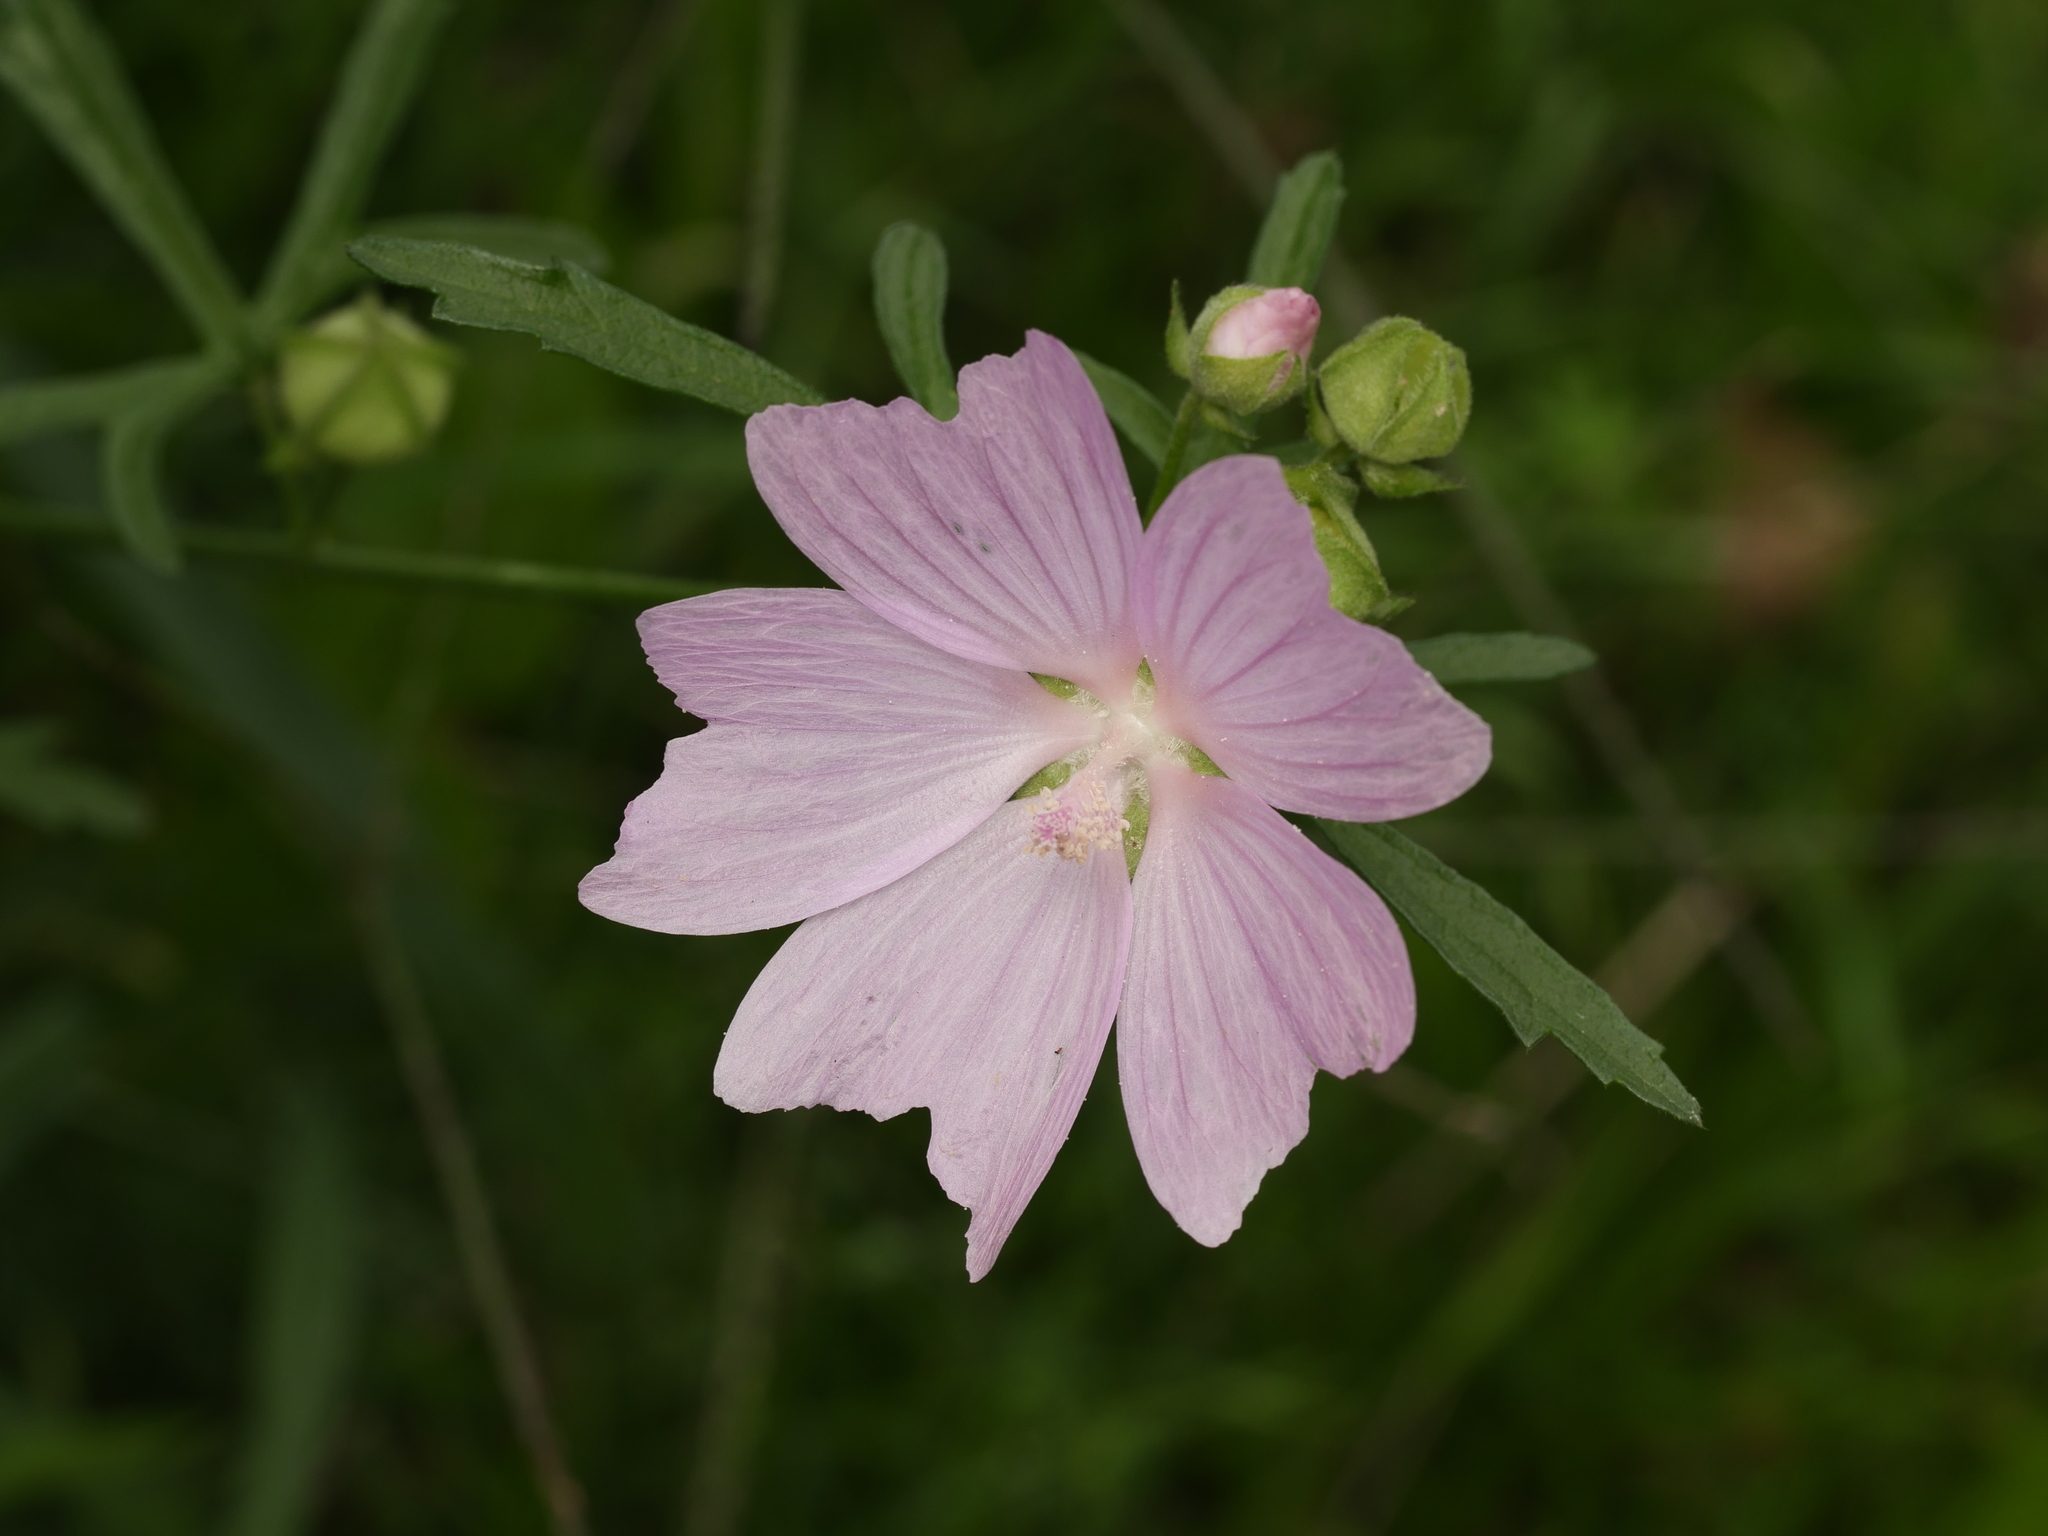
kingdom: Plantae
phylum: Tracheophyta
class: Magnoliopsida
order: Malvales
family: Malvaceae
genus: Malva
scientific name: Malva alcea
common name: Greater musk-mallow
